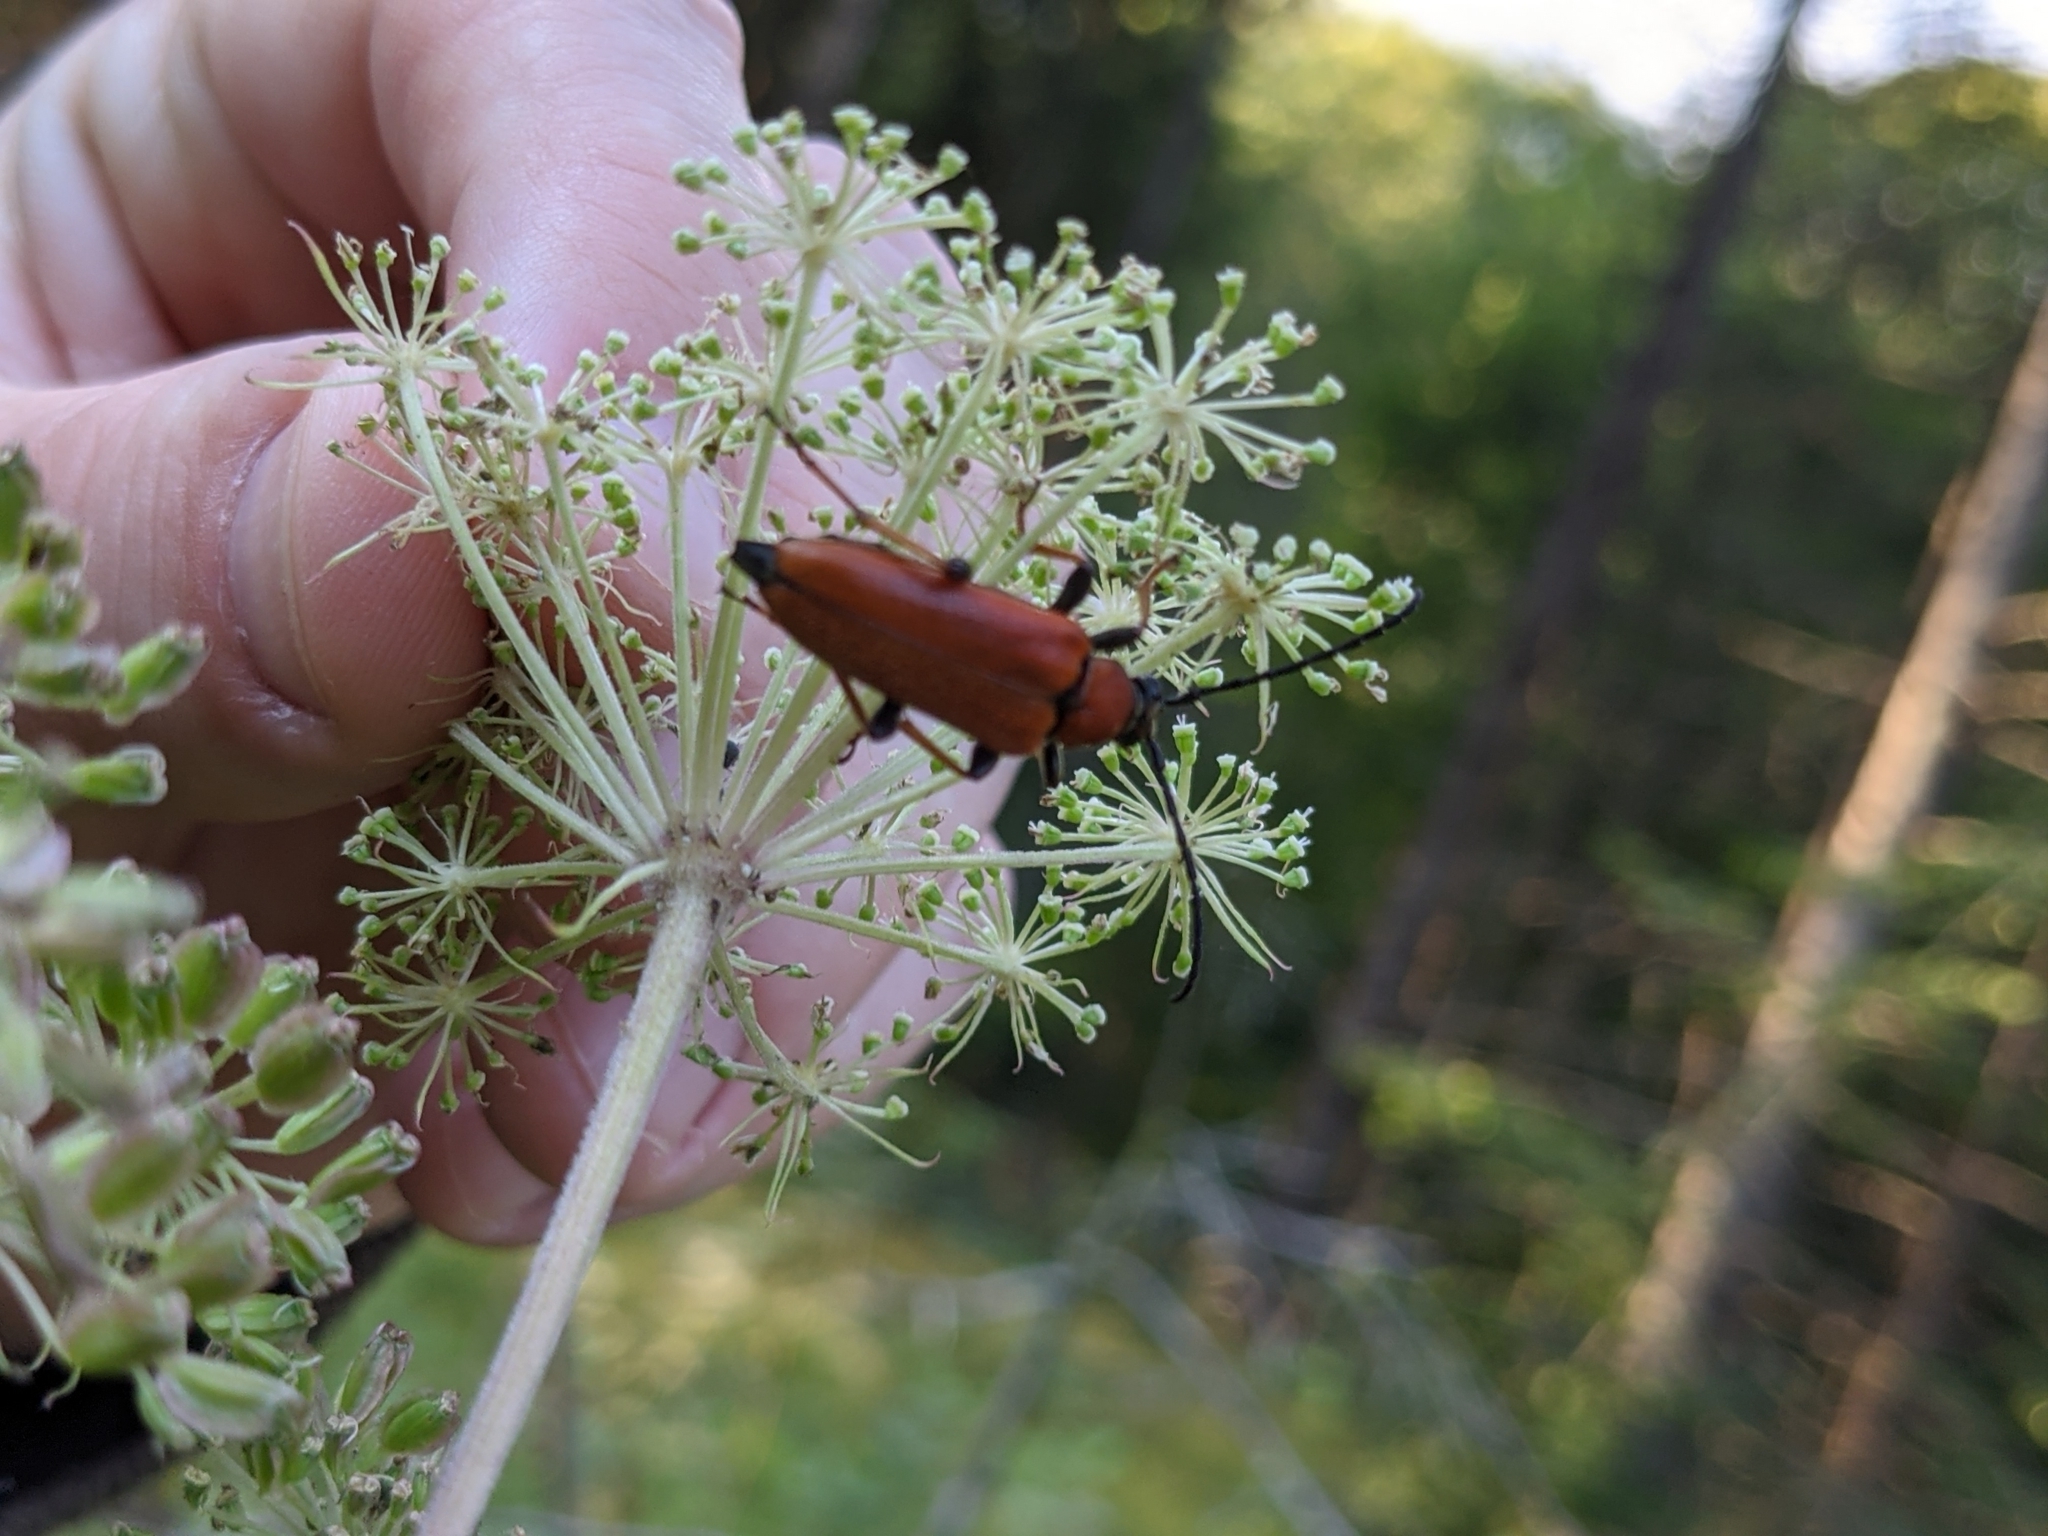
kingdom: Animalia
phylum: Arthropoda
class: Insecta
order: Coleoptera
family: Cerambycidae
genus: Stictoleptura
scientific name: Stictoleptura rubra
